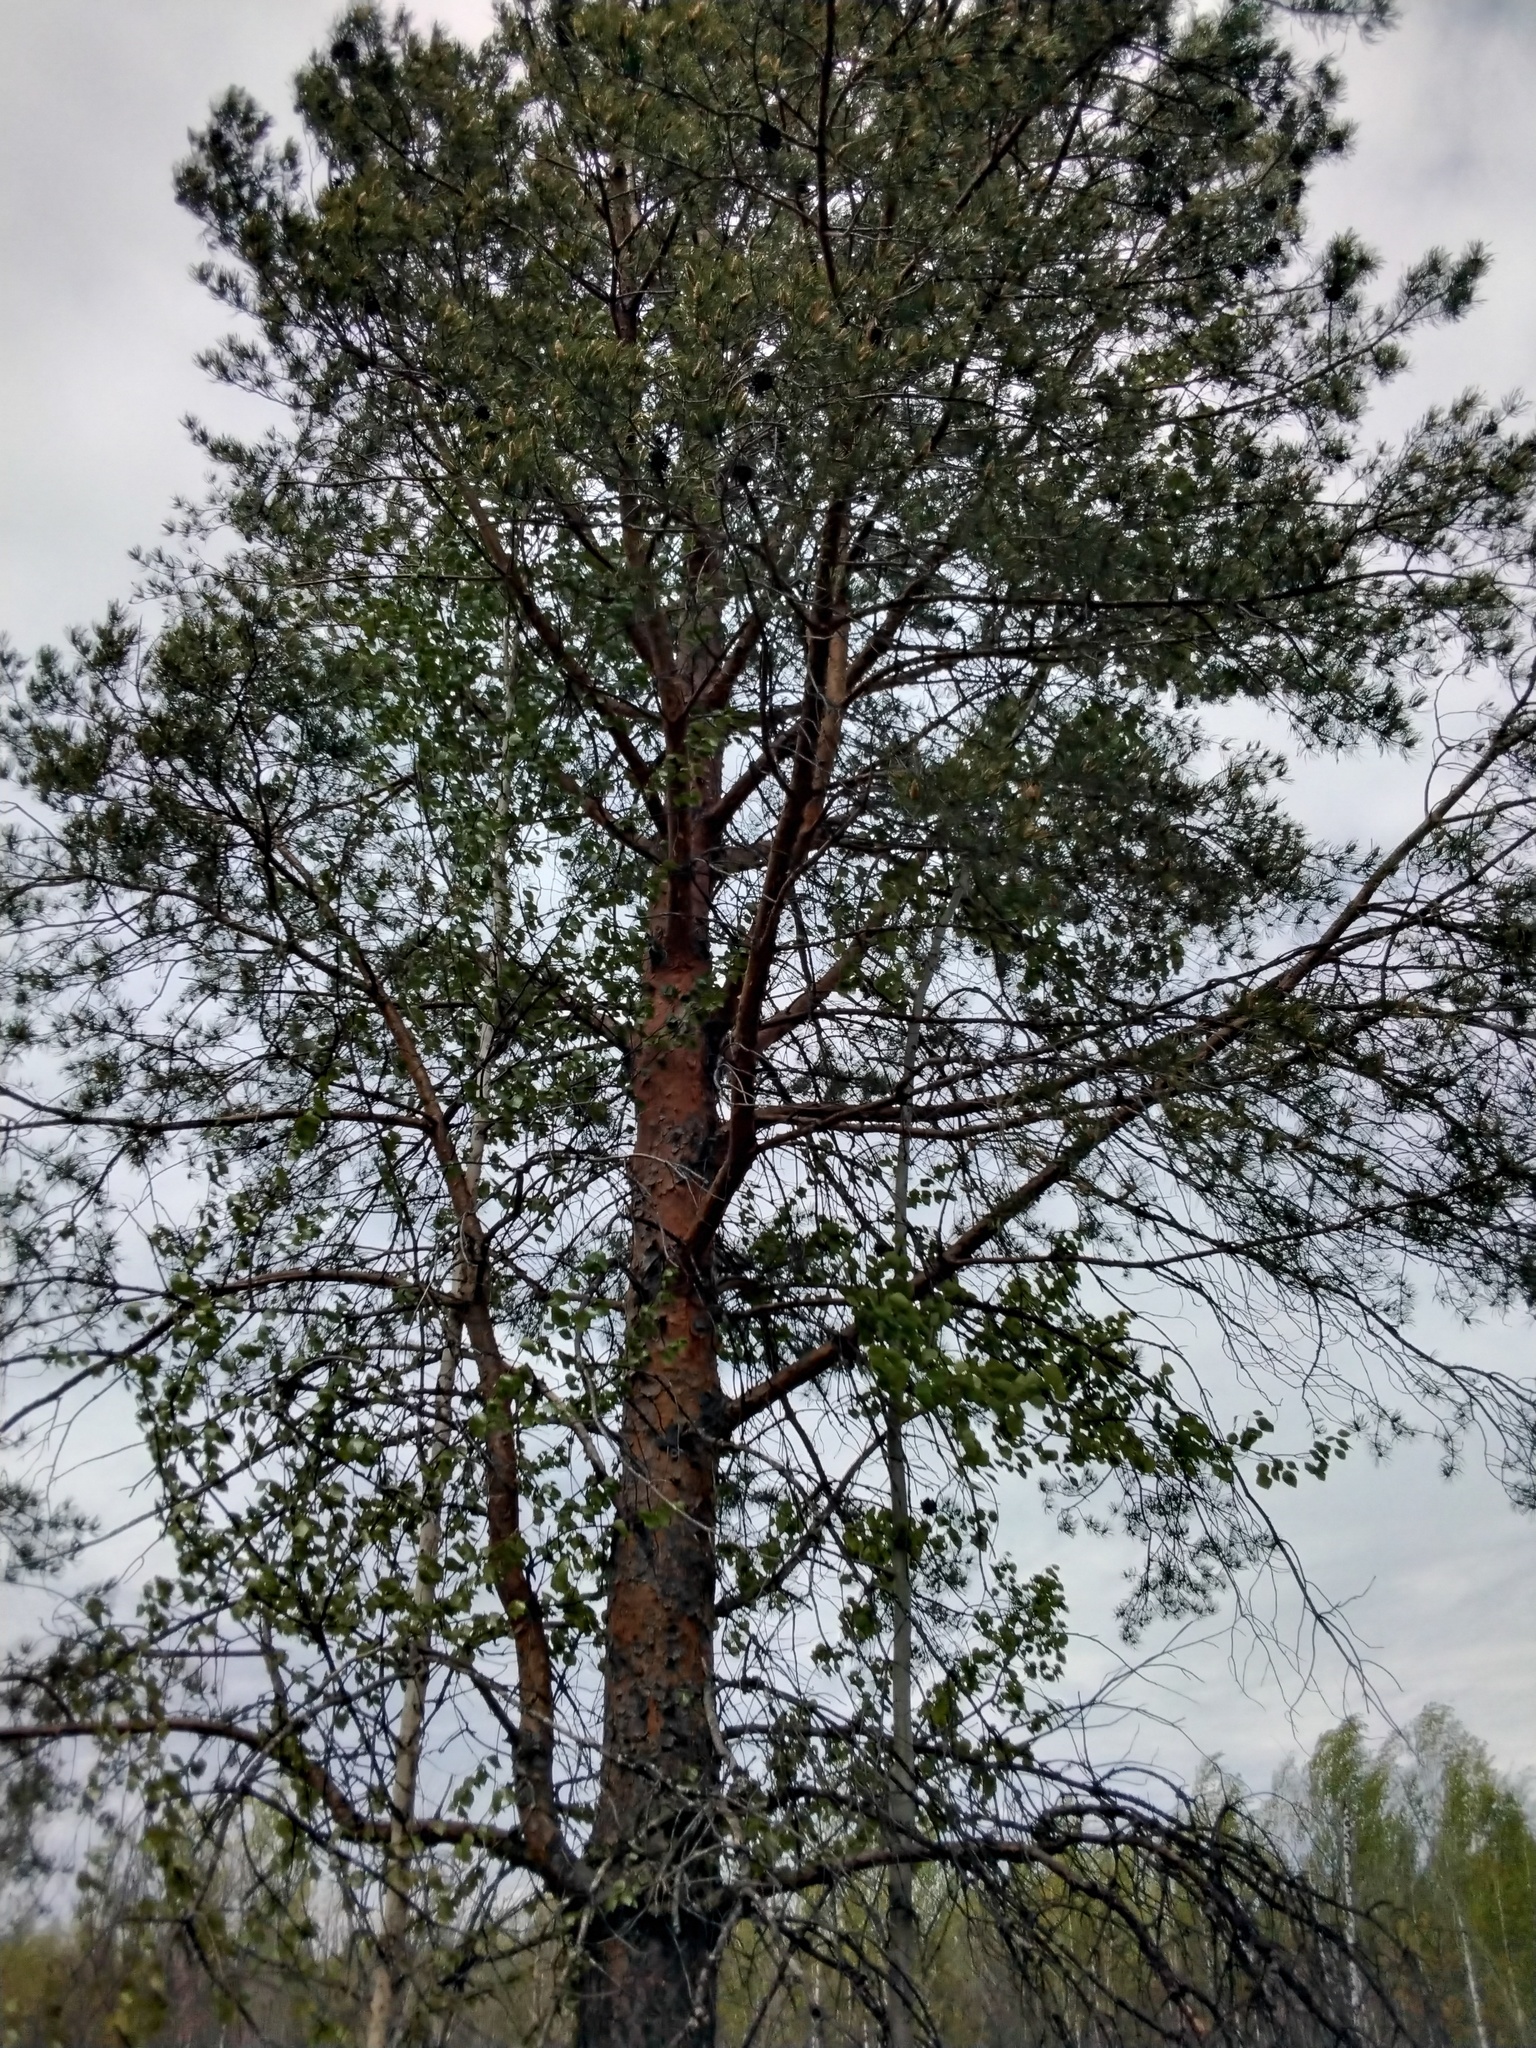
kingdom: Plantae
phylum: Tracheophyta
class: Pinopsida
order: Pinales
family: Pinaceae
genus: Pinus
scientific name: Pinus sylvestris
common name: Scots pine
